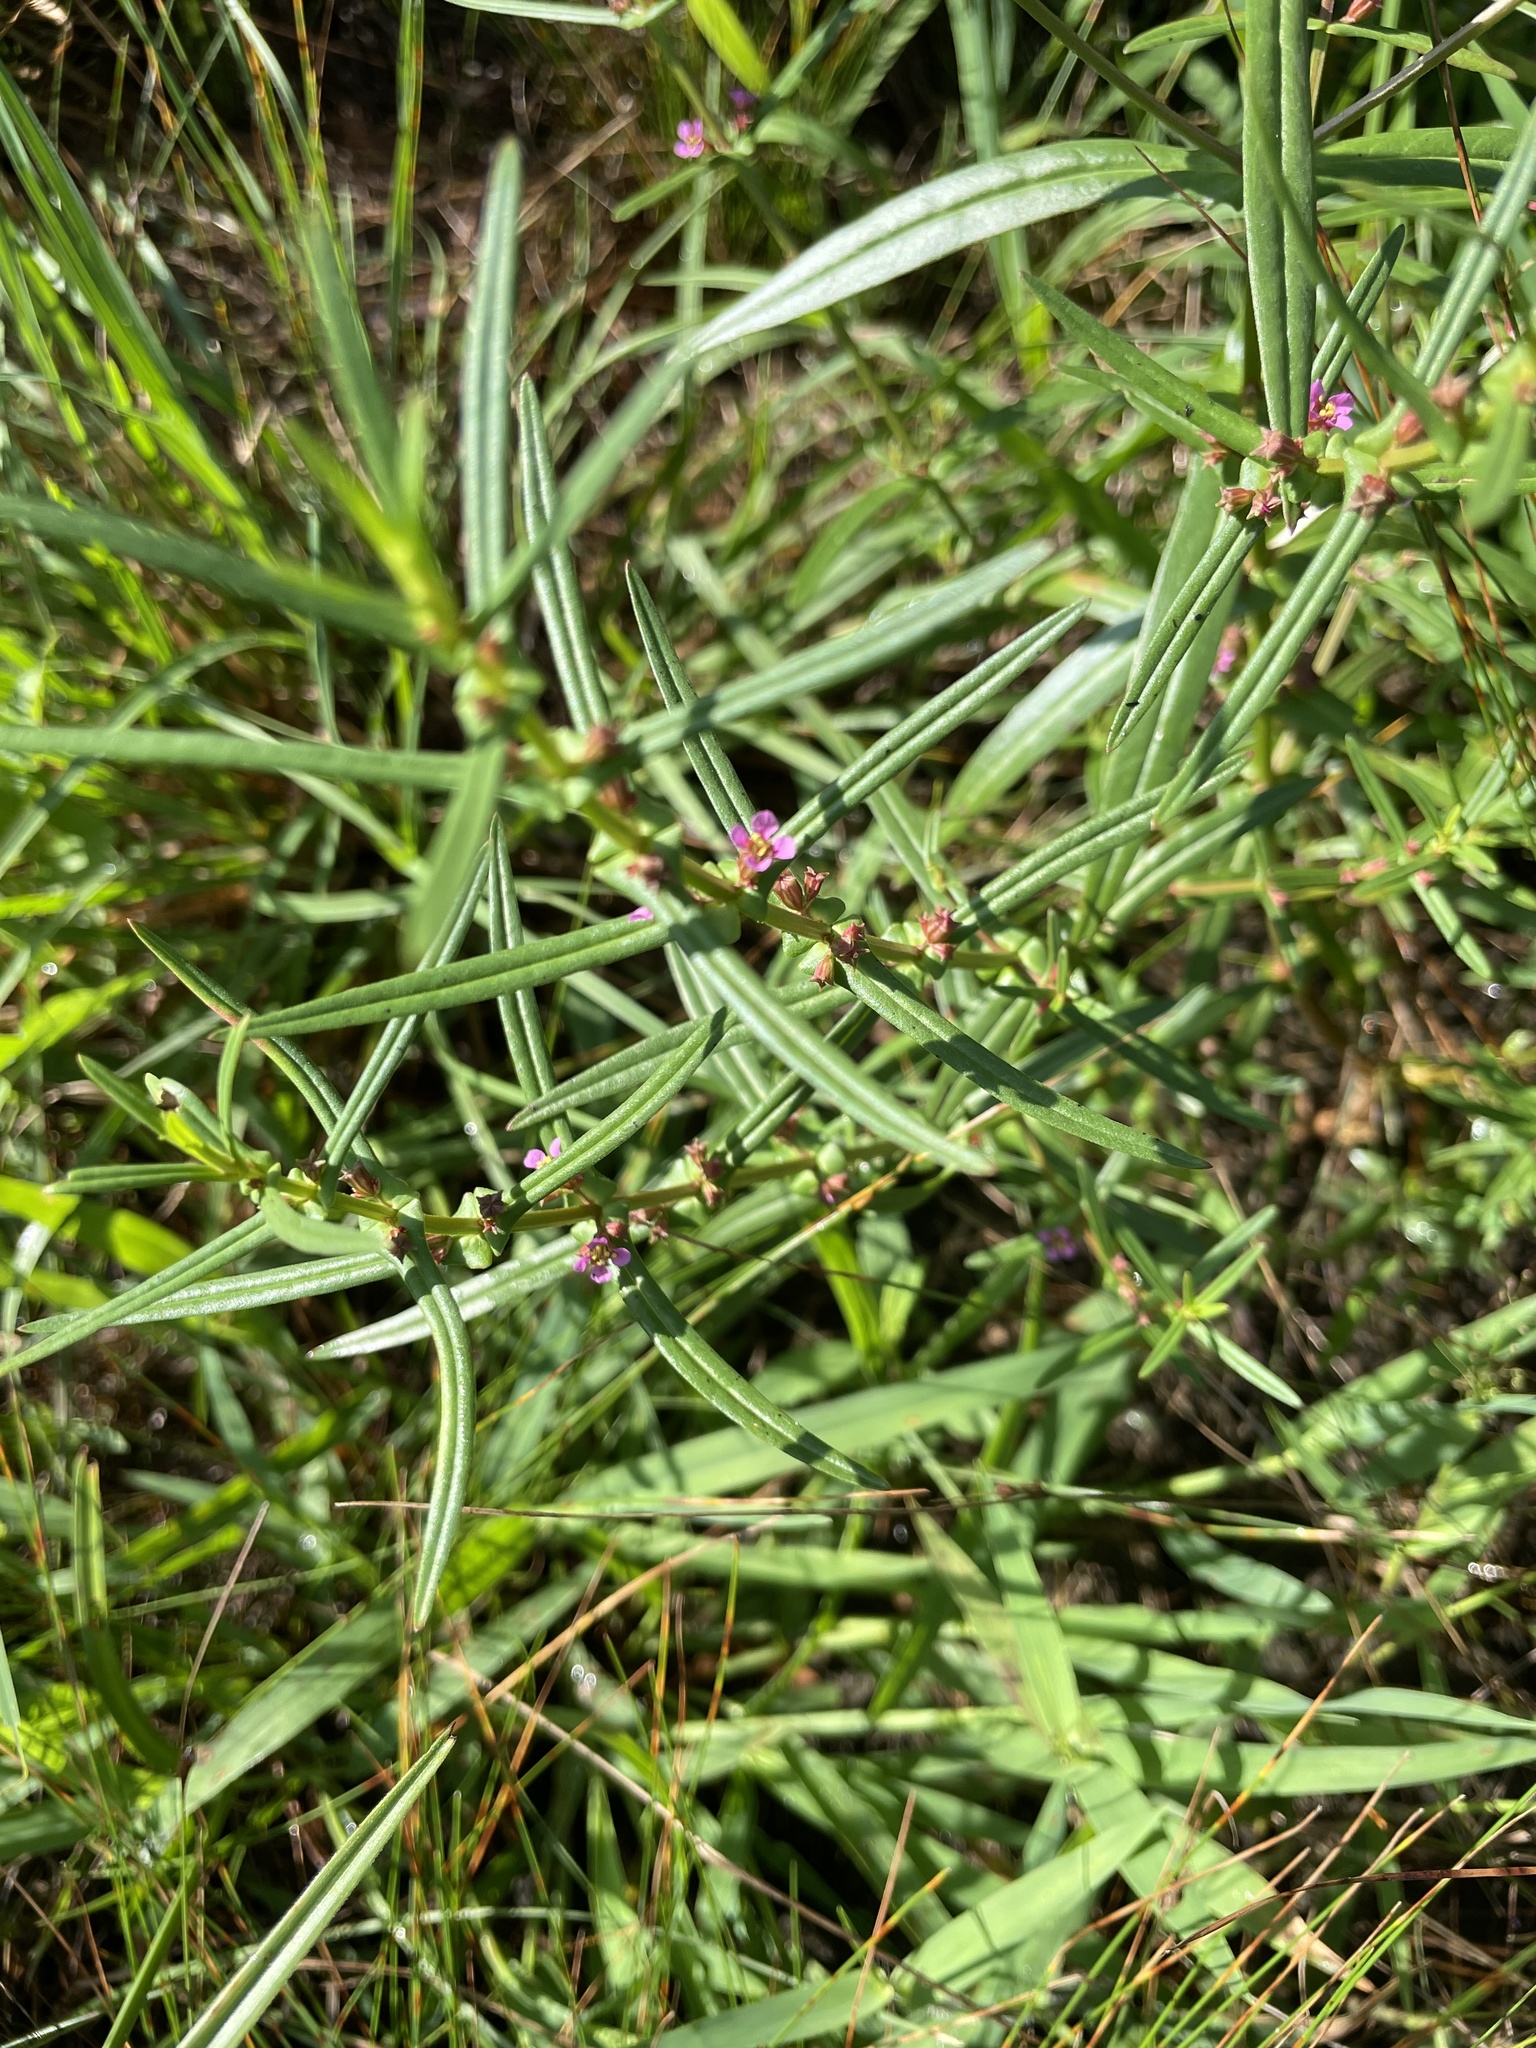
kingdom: Plantae
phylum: Tracheophyta
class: Magnoliopsida
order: Myrtales
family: Lythraceae
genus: Ammannia
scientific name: Ammannia coccinea
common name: Valley redstem
